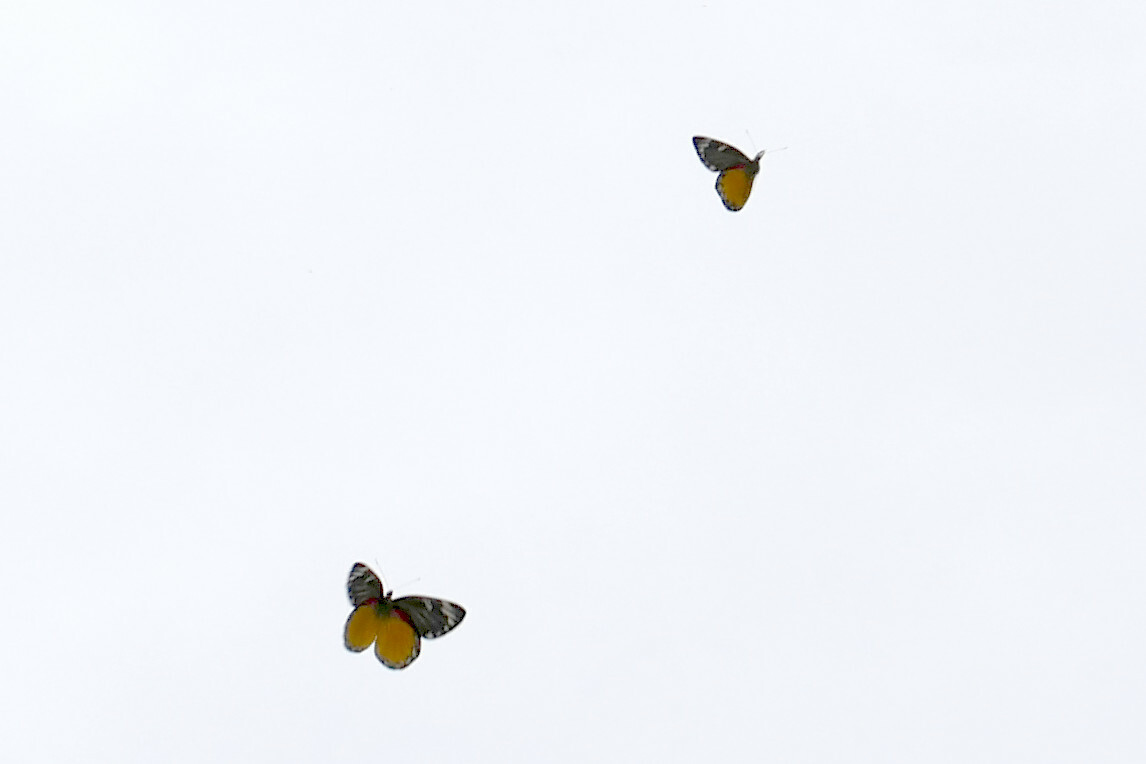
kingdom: Animalia
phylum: Arthropoda
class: Insecta
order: Lepidoptera
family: Pieridae
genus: Delias
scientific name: Delias descombesi
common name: Red-spot jezebel
